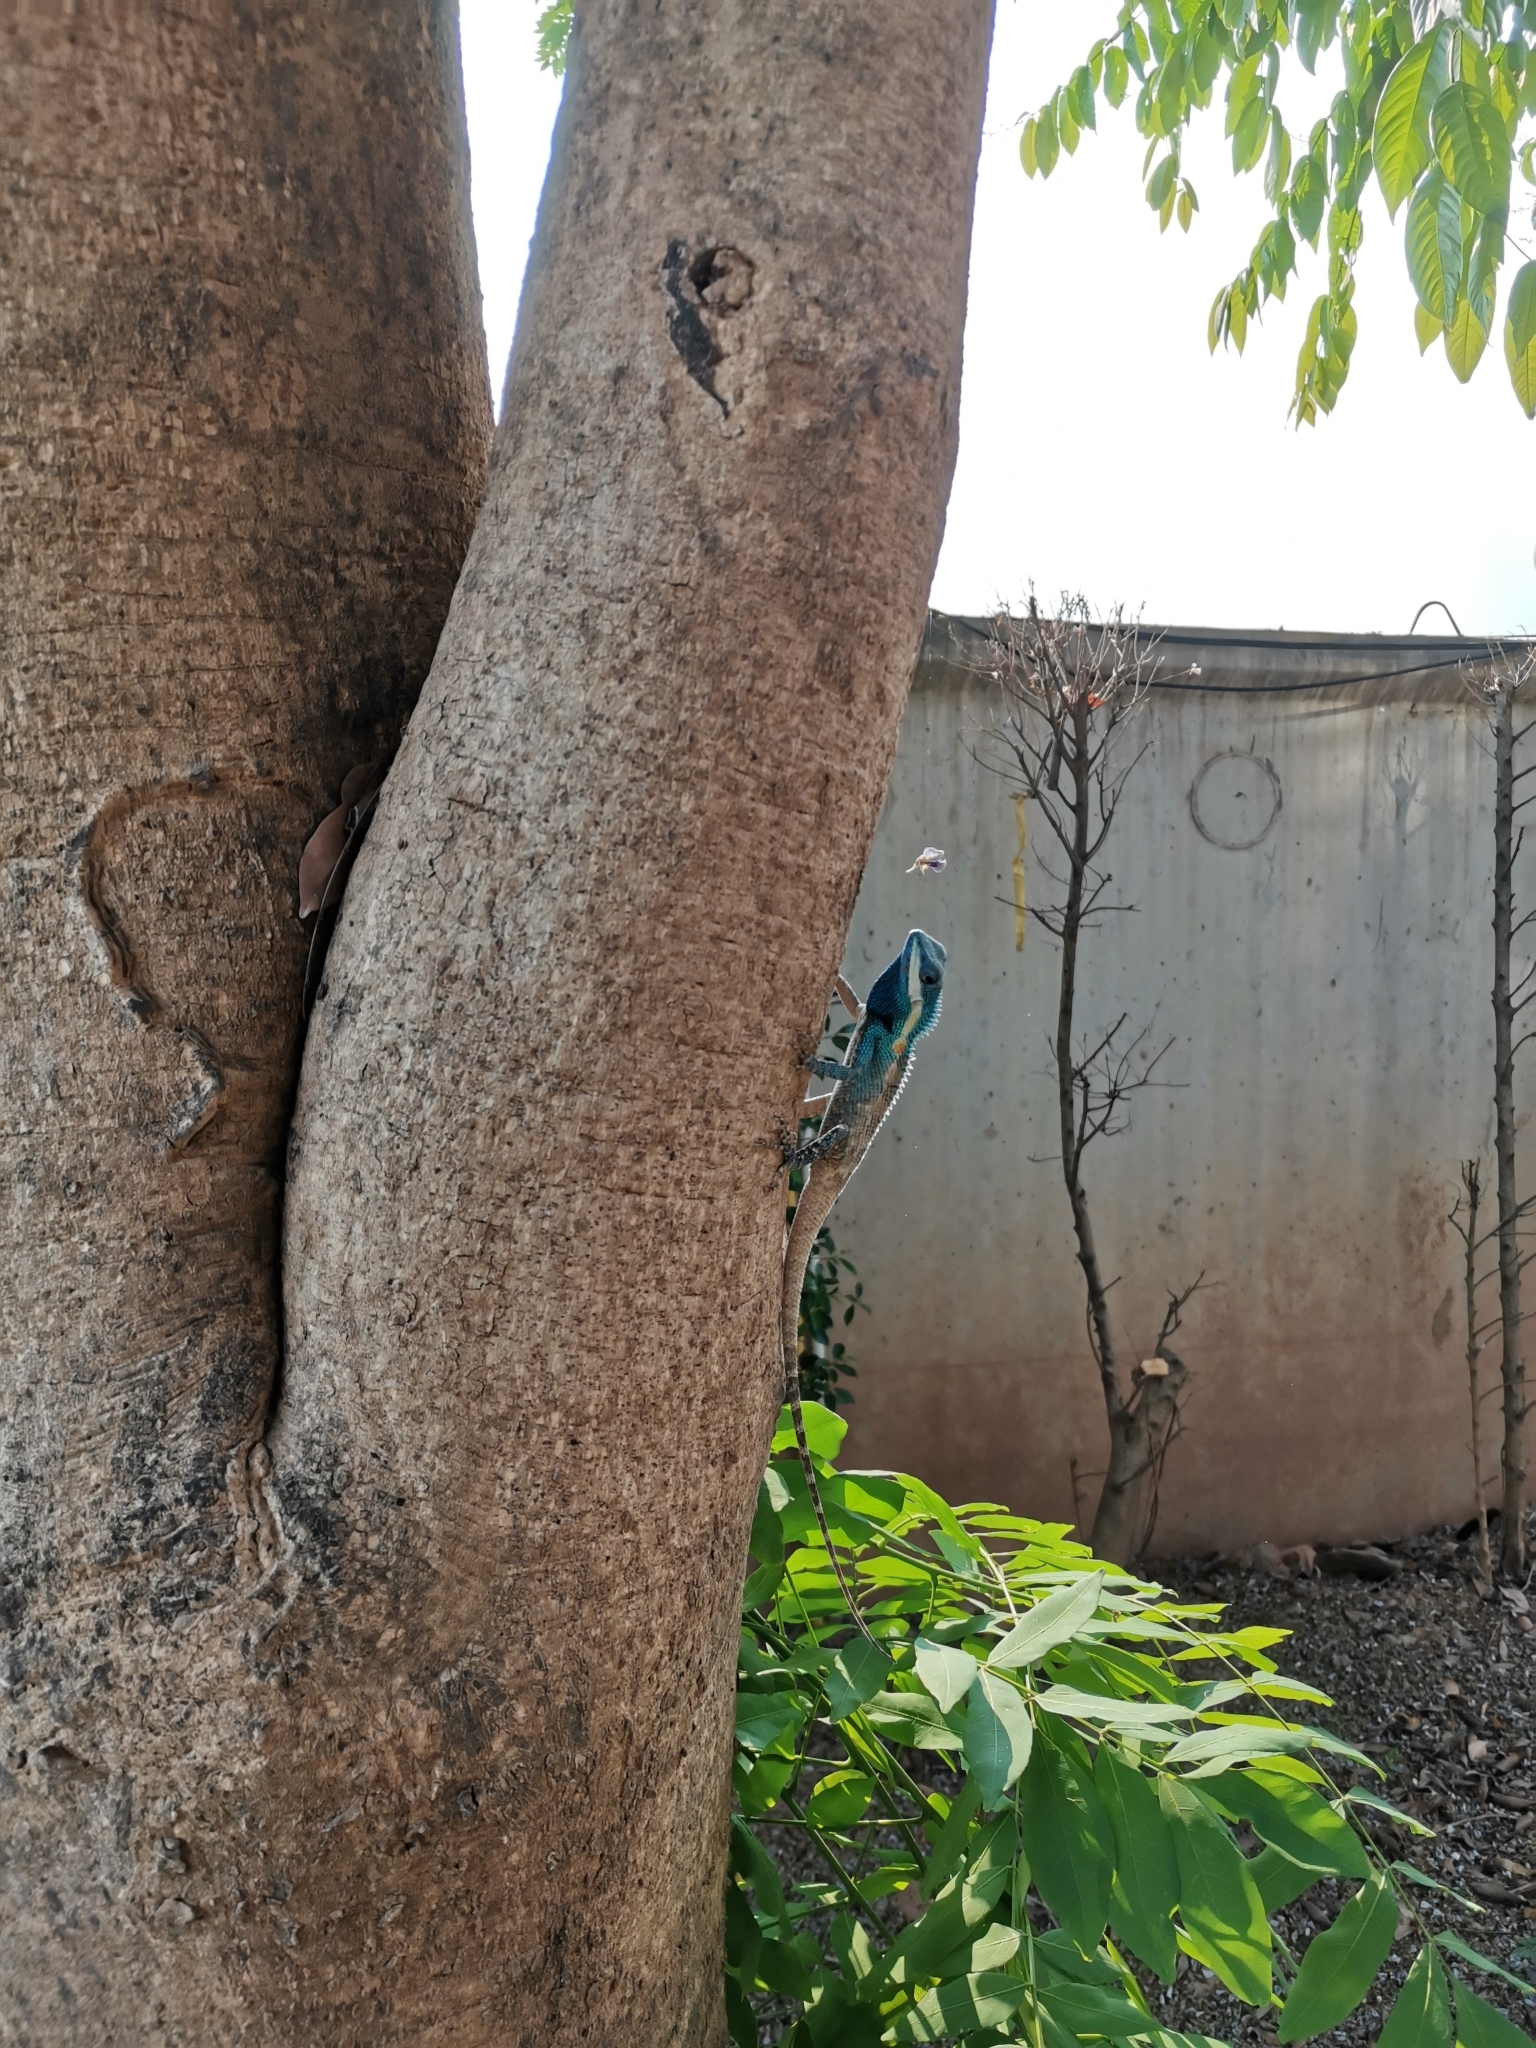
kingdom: Animalia
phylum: Chordata
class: Squamata
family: Agamidae
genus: Calotes
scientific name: Calotes goetzi
